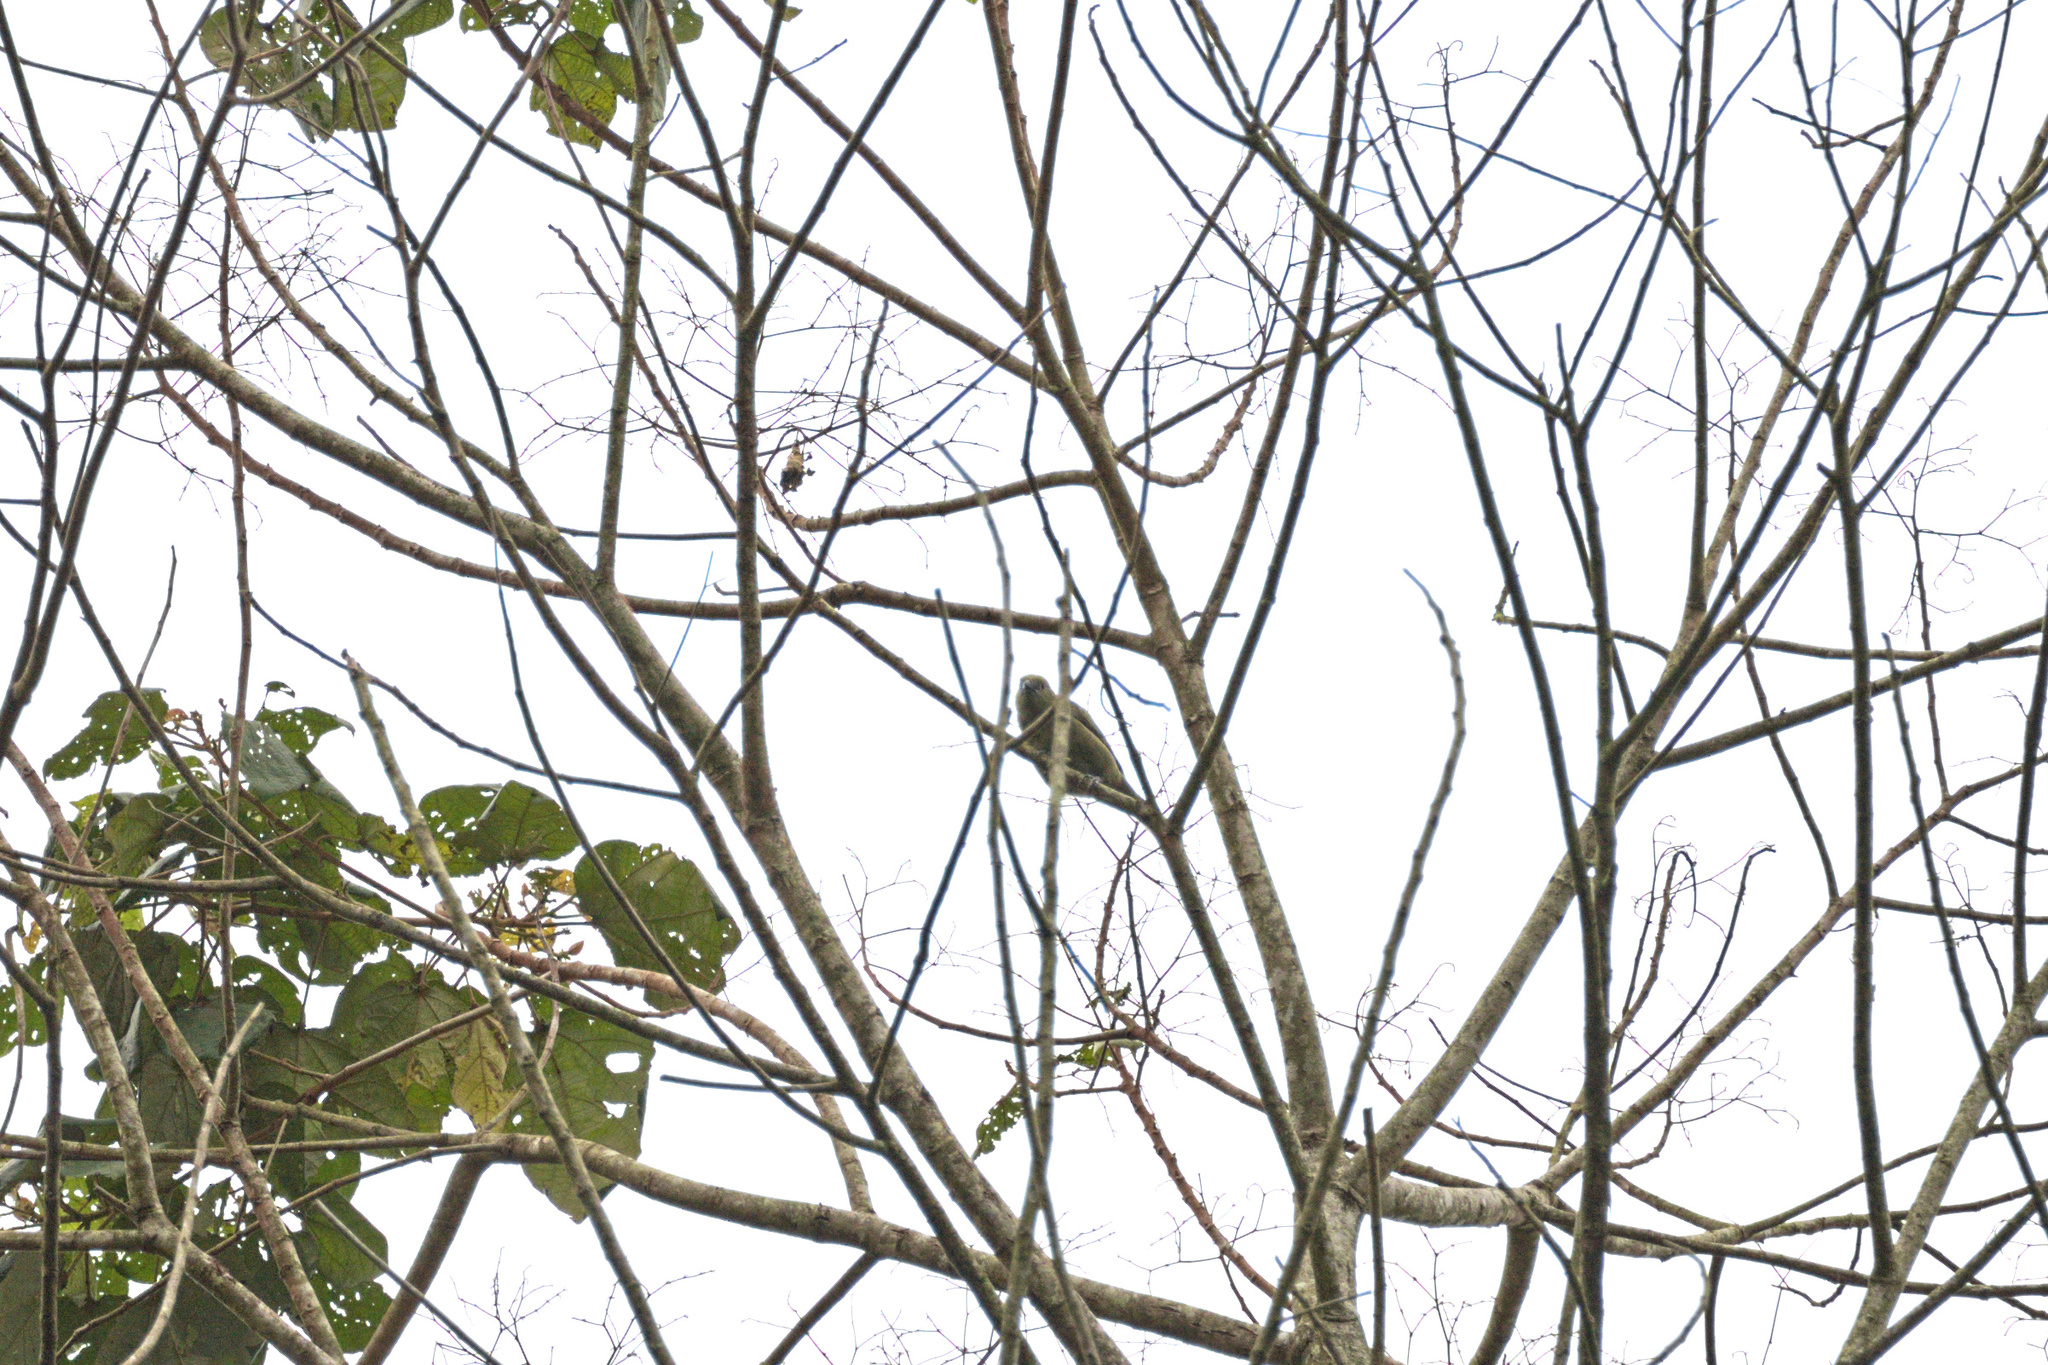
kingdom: Animalia
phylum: Chordata
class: Aves
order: Passeriformes
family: Thraupidae
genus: Thraupis
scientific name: Thraupis palmarum
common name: Palm tanager
